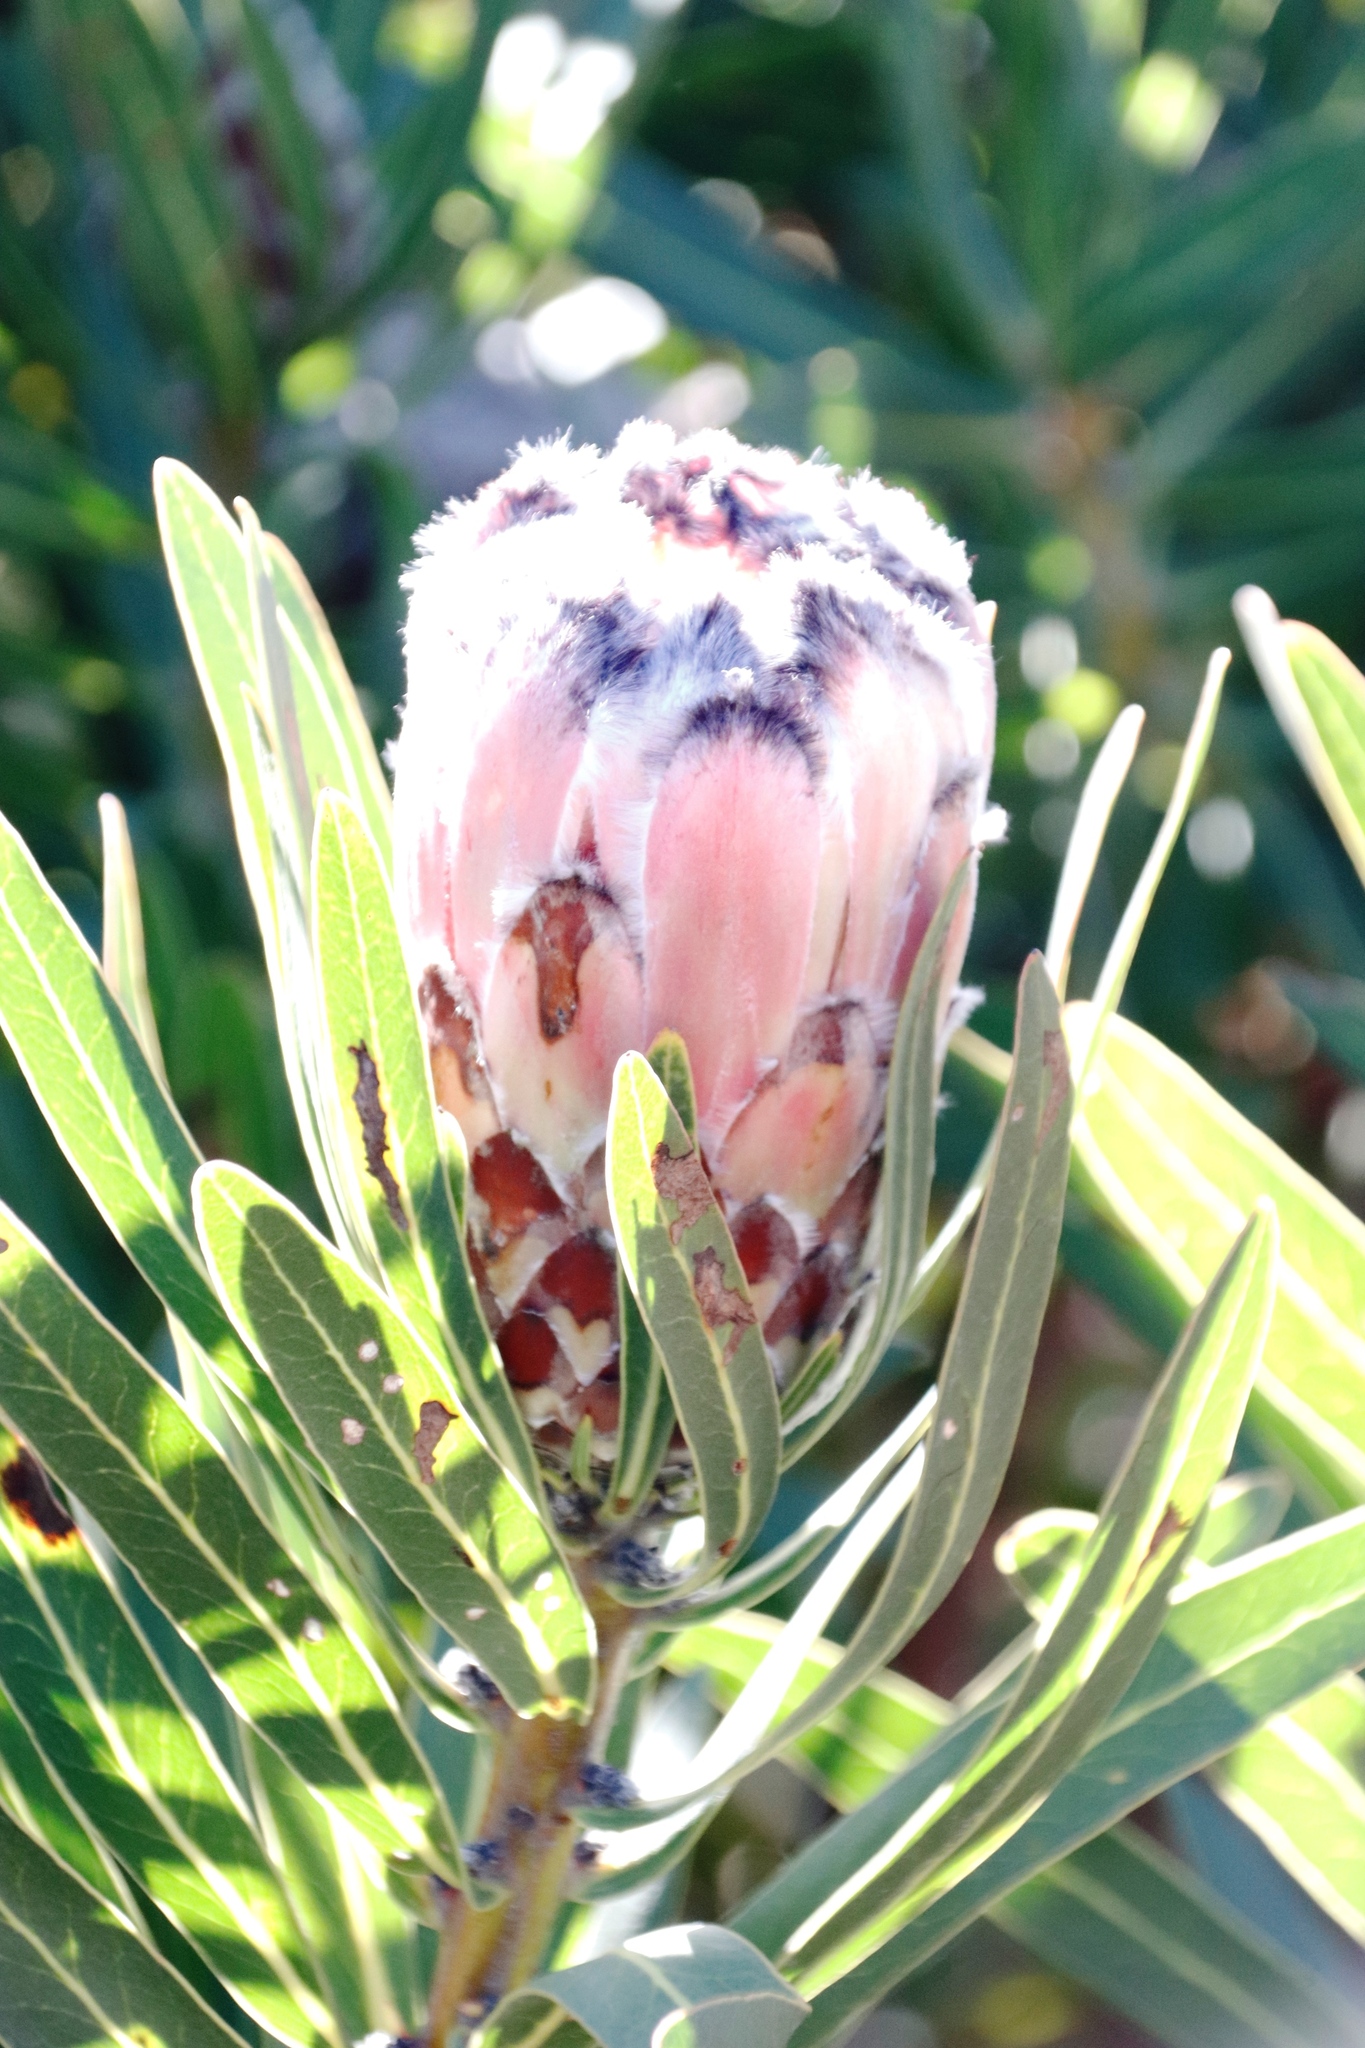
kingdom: Plantae
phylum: Tracheophyta
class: Magnoliopsida
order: Proteales
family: Proteaceae
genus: Protea
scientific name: Protea
